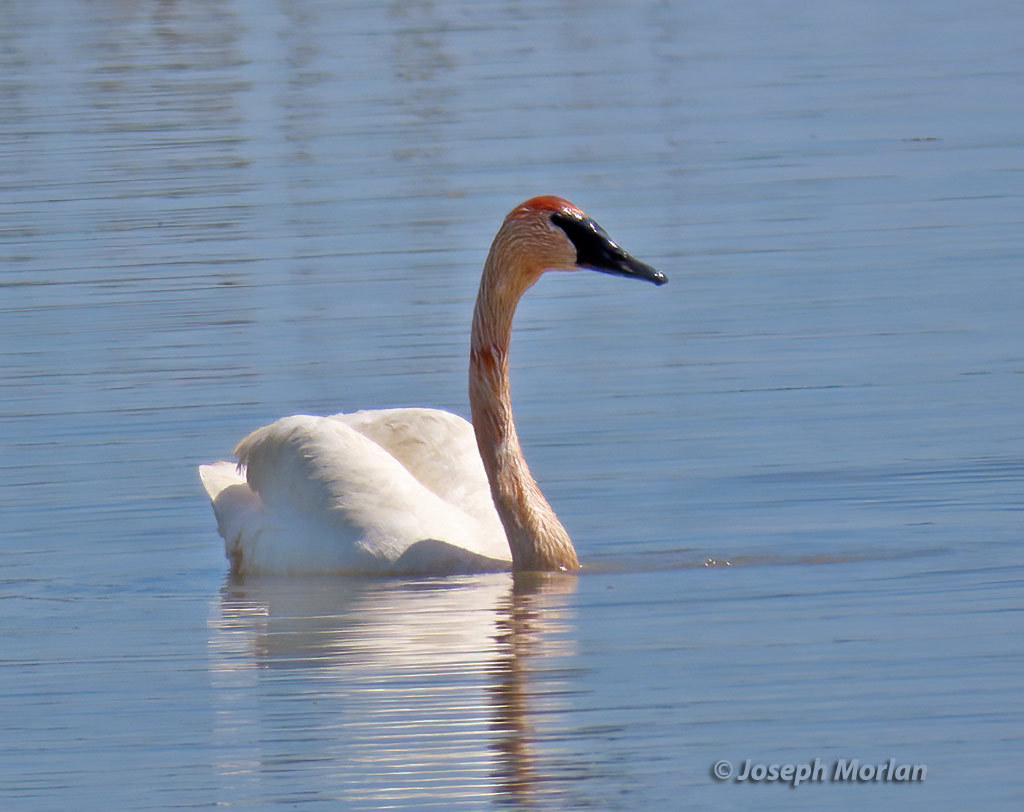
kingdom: Animalia
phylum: Chordata
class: Aves
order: Anseriformes
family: Anatidae
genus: Cygnus
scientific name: Cygnus buccinator
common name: Trumpeter swan
